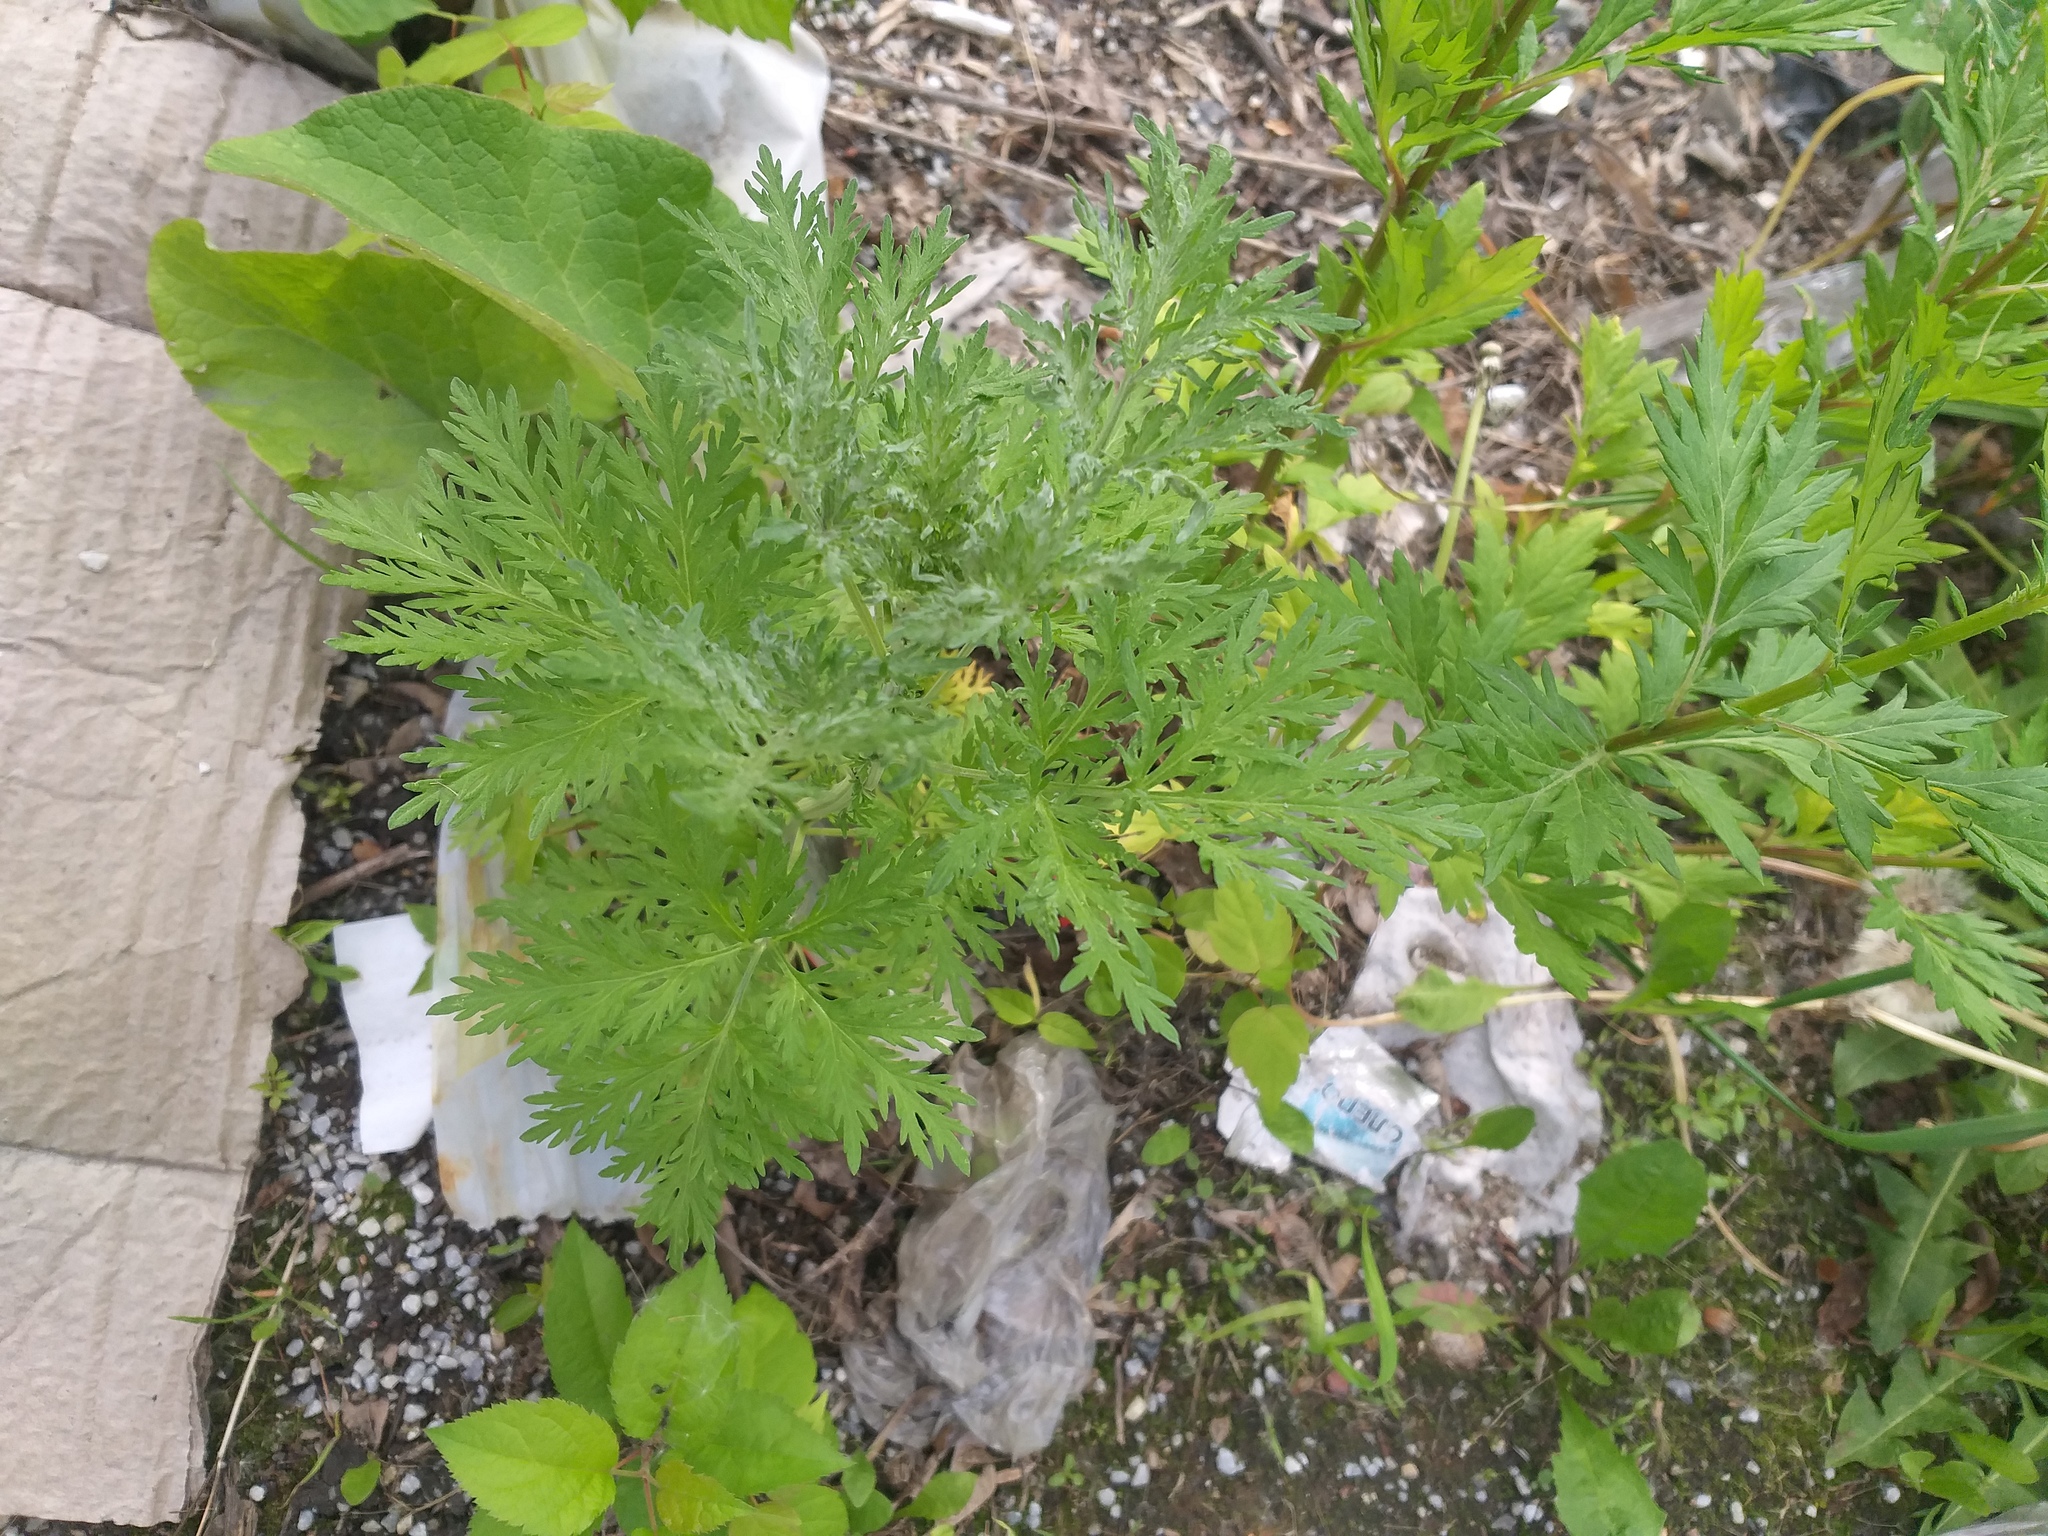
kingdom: Plantae
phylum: Tracheophyta
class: Magnoliopsida
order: Asterales
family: Asteraceae
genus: Artemisia
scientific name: Artemisia sieversiana
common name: Sieversian wormwood
